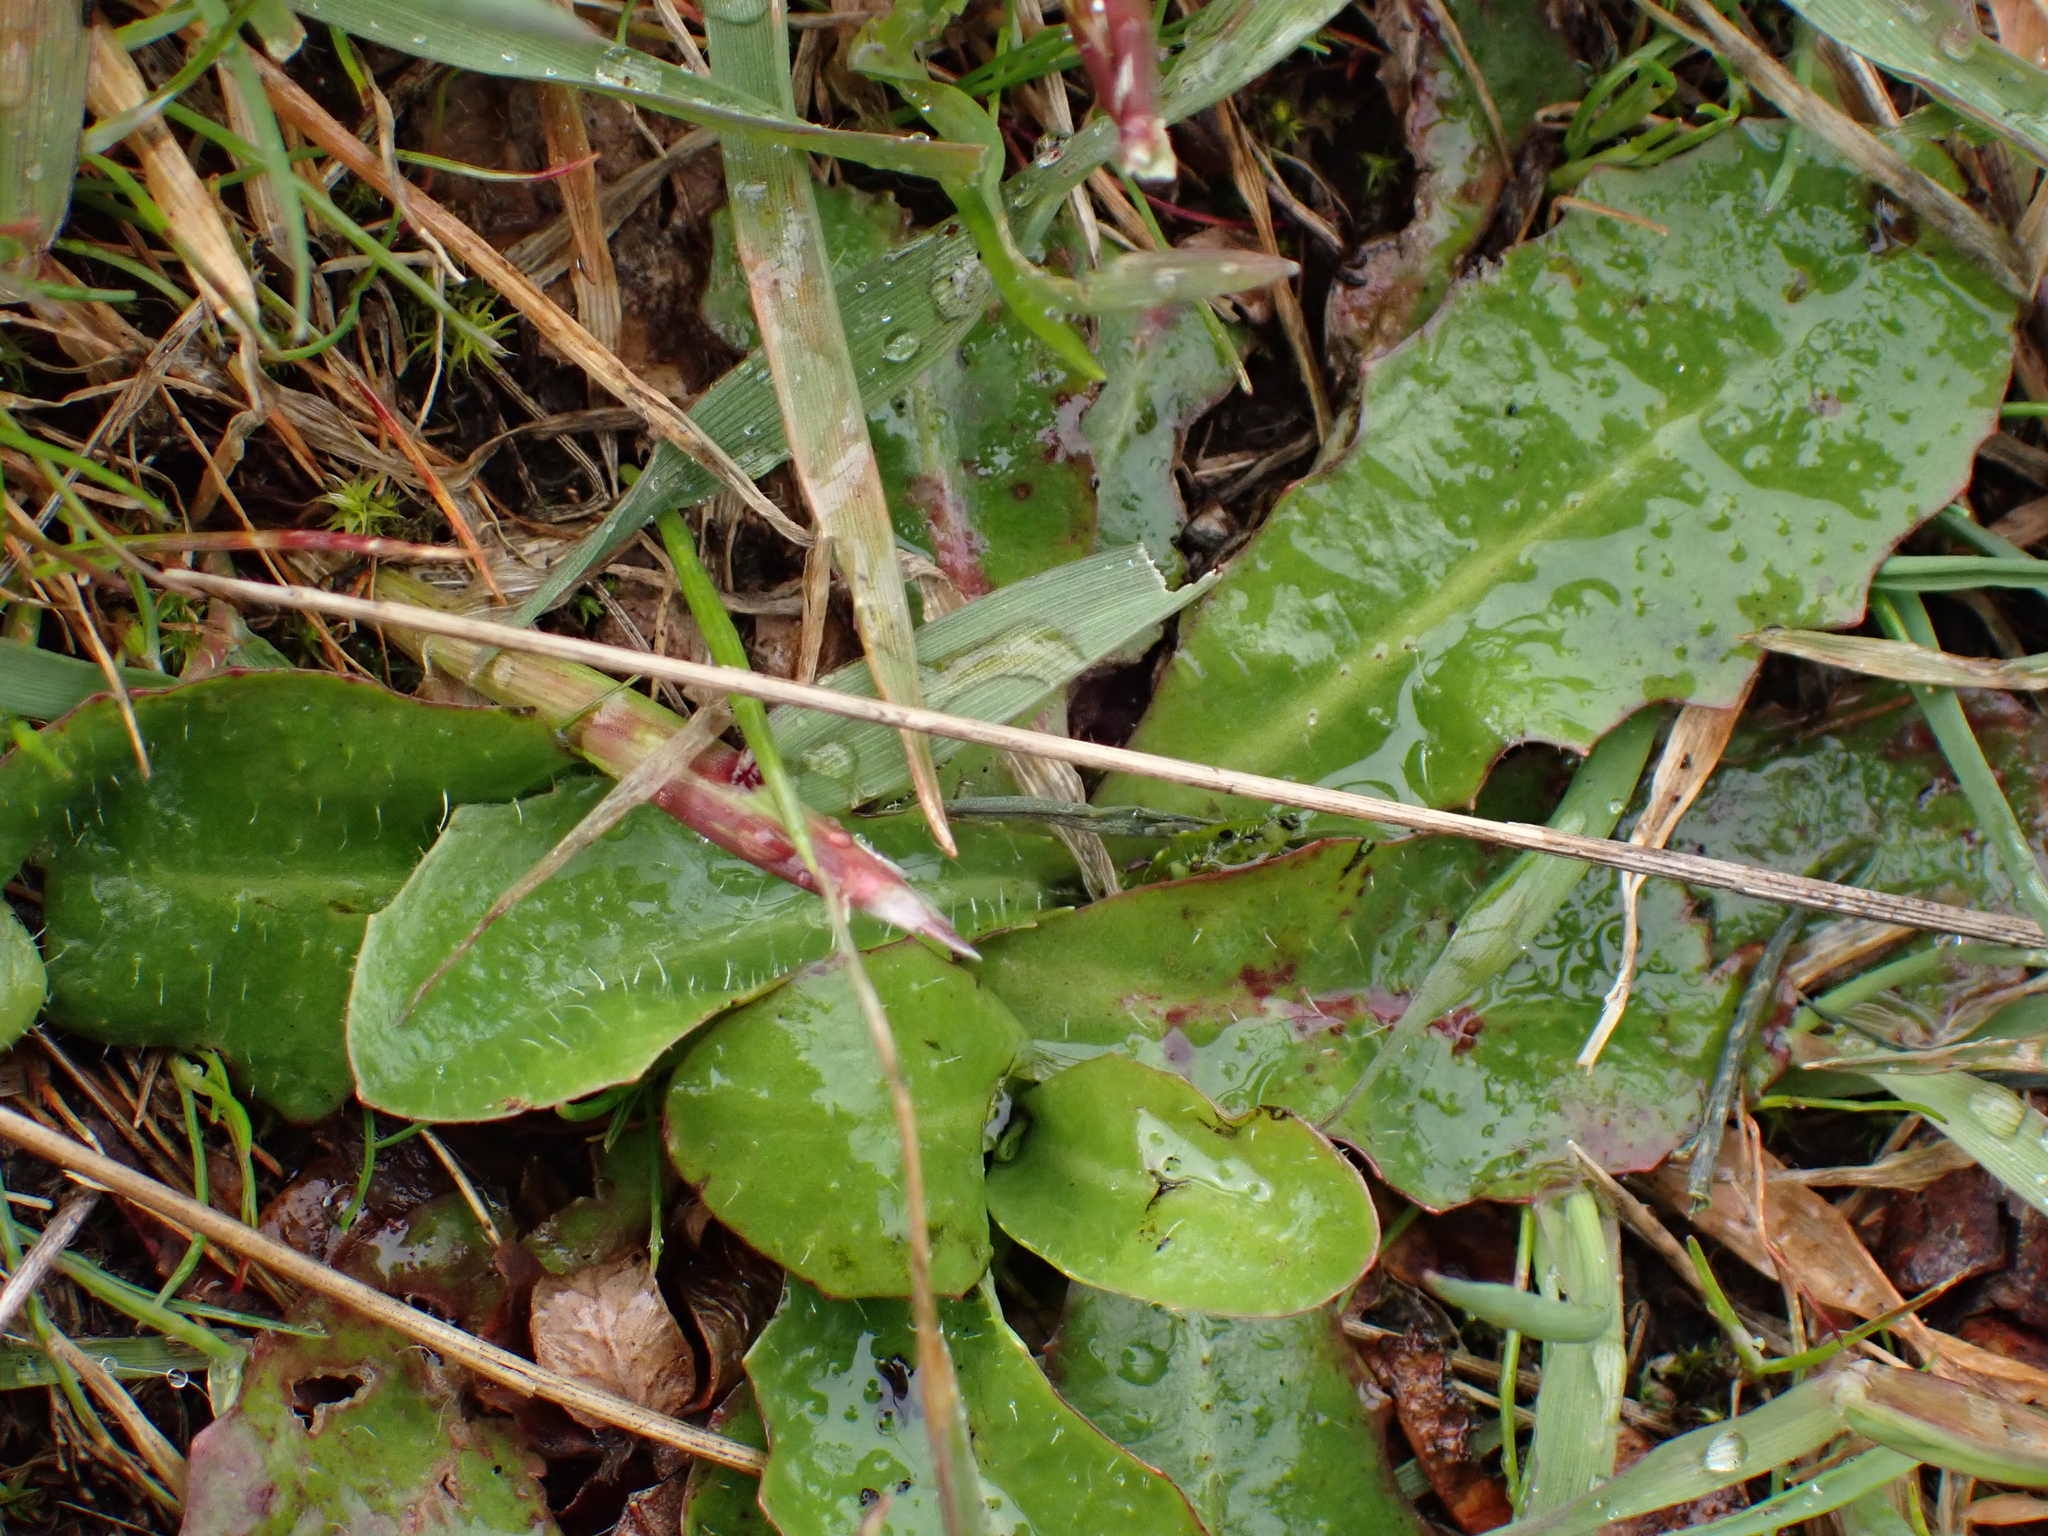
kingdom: Plantae
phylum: Tracheophyta
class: Magnoliopsida
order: Asterales
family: Asteraceae
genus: Hypochaeris
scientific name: Hypochaeris radicata
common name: Flatweed
